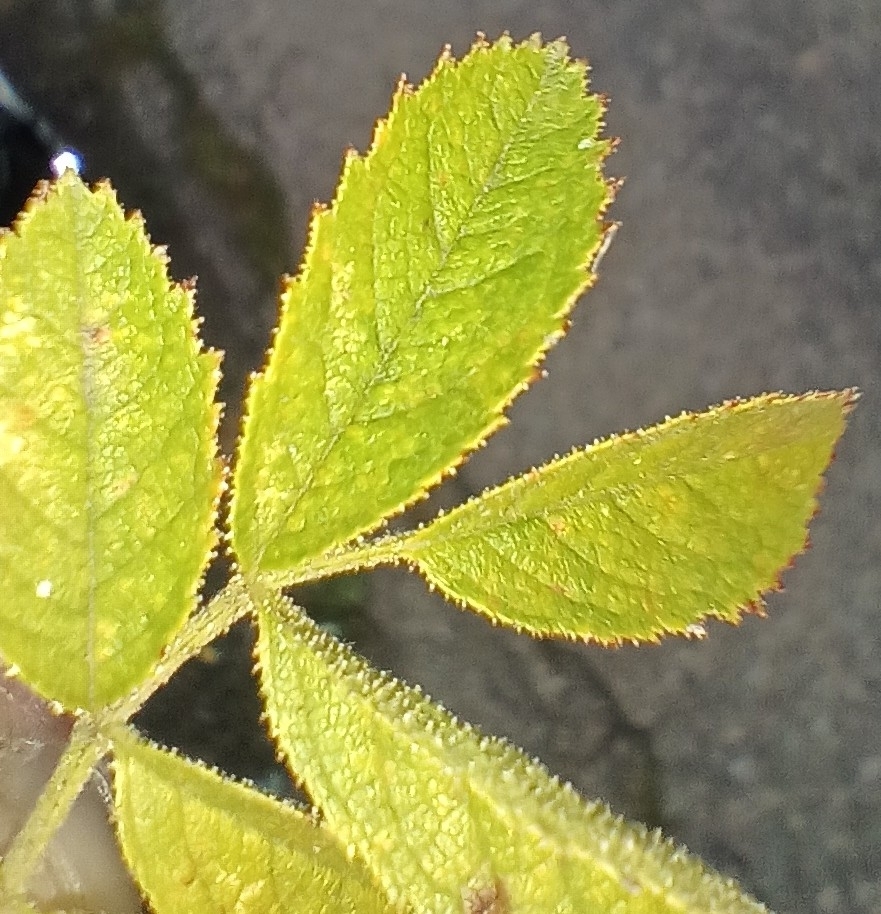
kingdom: Plantae
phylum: Tracheophyta
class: Magnoliopsida
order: Rosales
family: Rosaceae
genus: Rosa
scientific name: Rosa inodora
